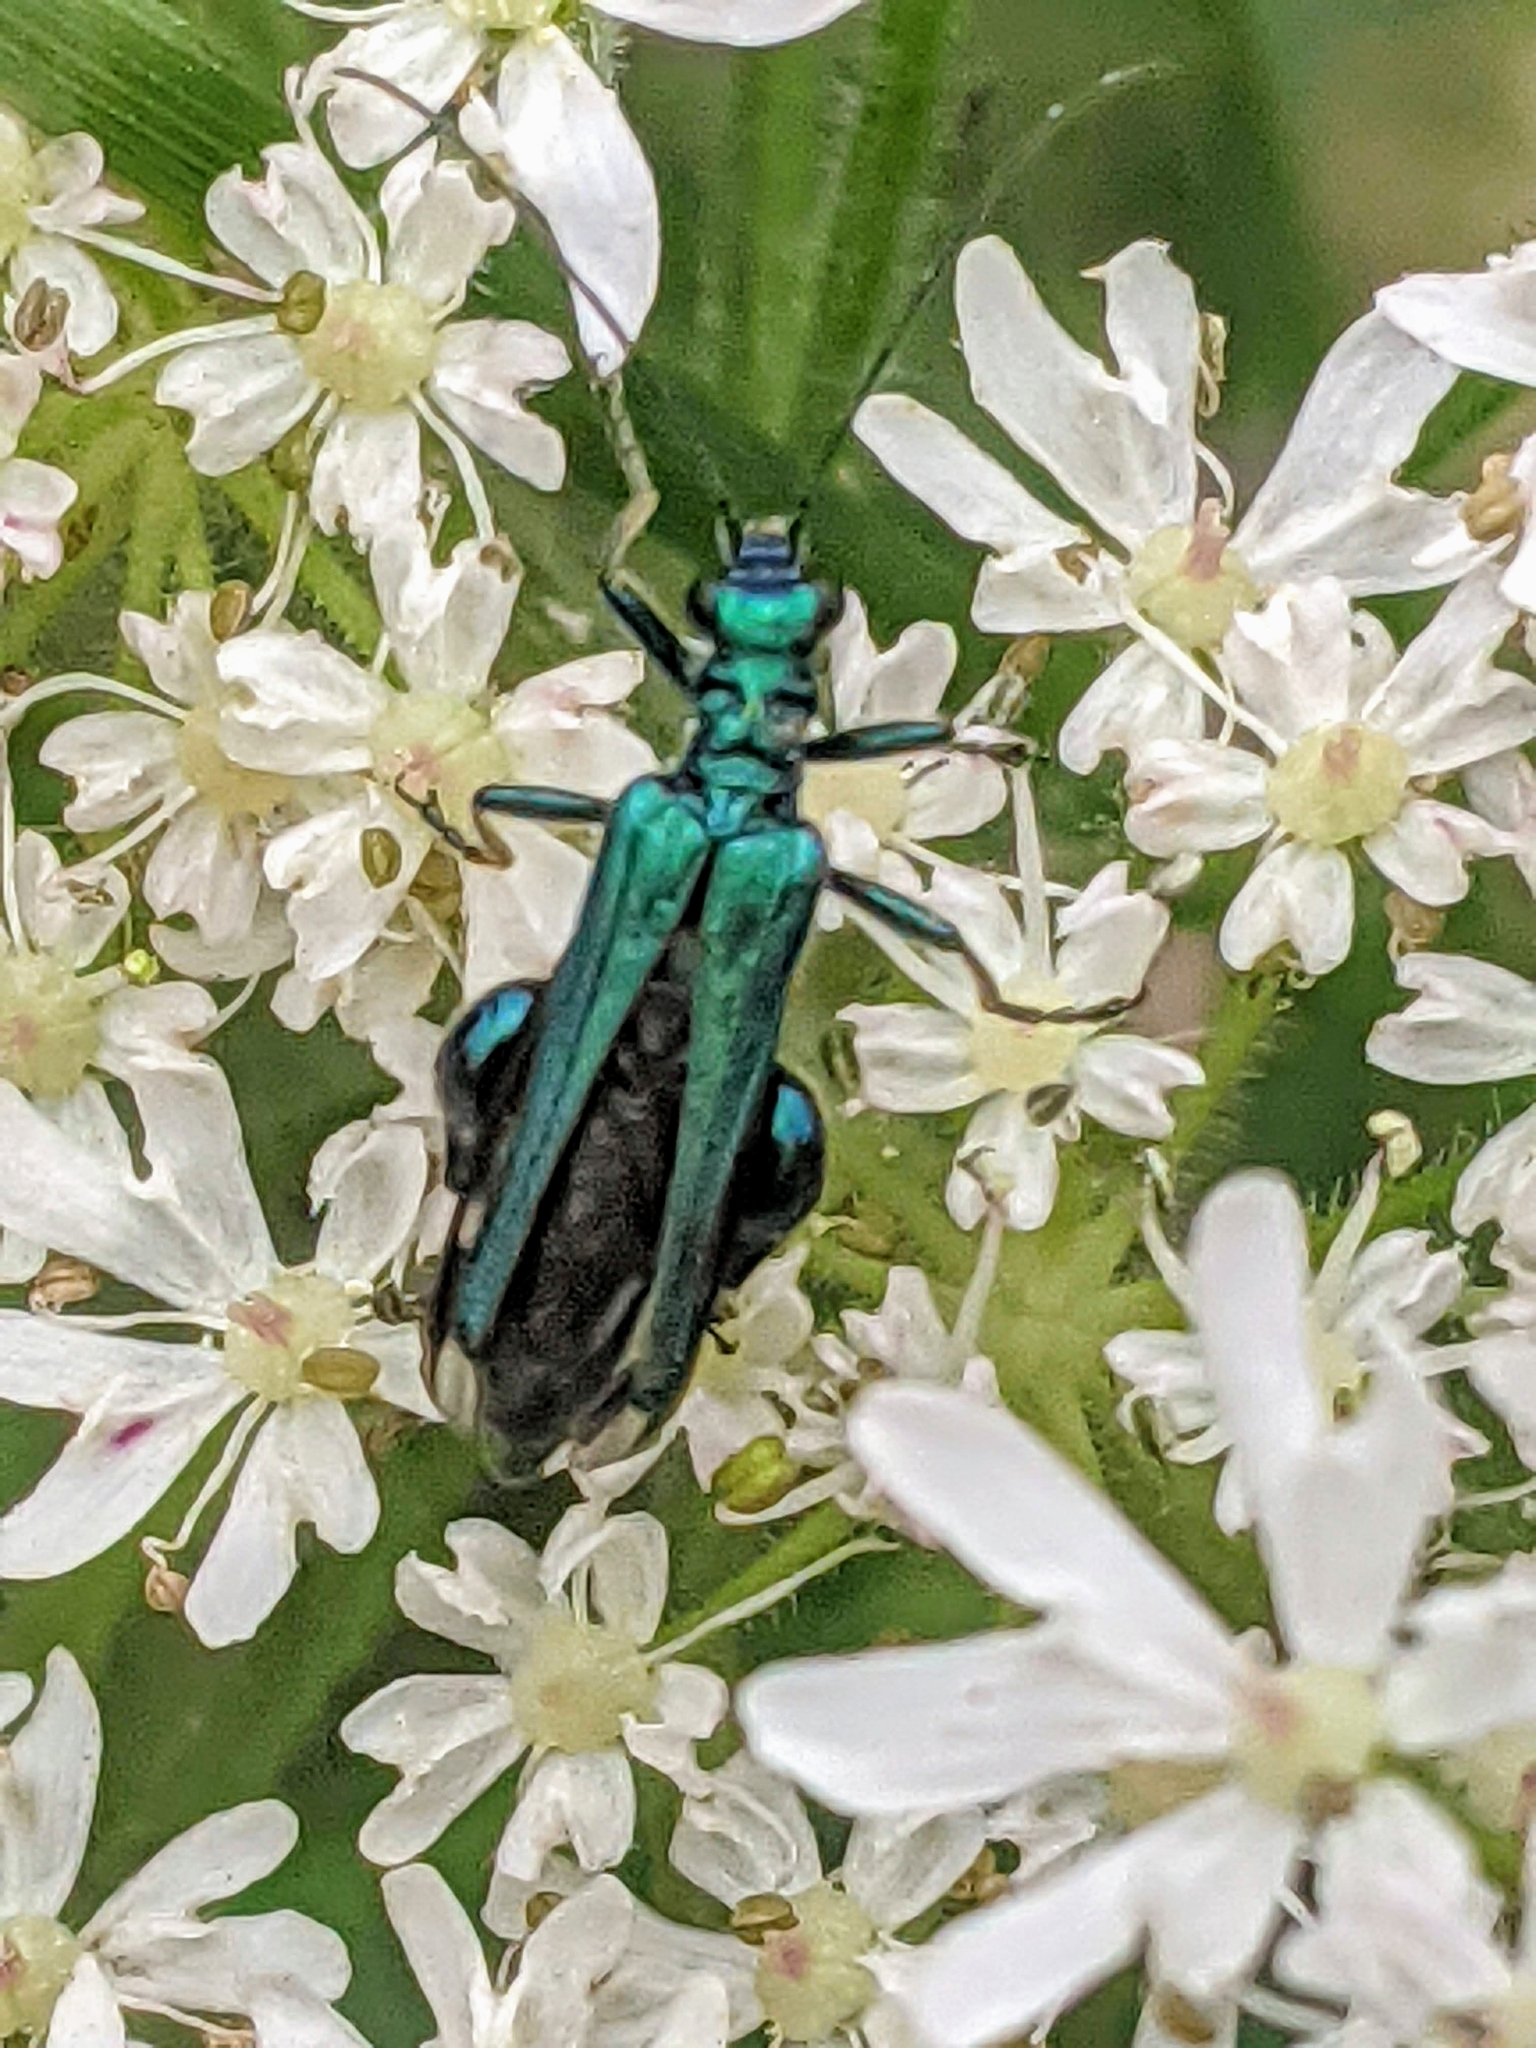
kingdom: Animalia
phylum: Arthropoda
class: Insecta
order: Coleoptera
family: Oedemeridae
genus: Oedemera
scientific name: Oedemera nobilis
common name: Swollen-thighed beetle
